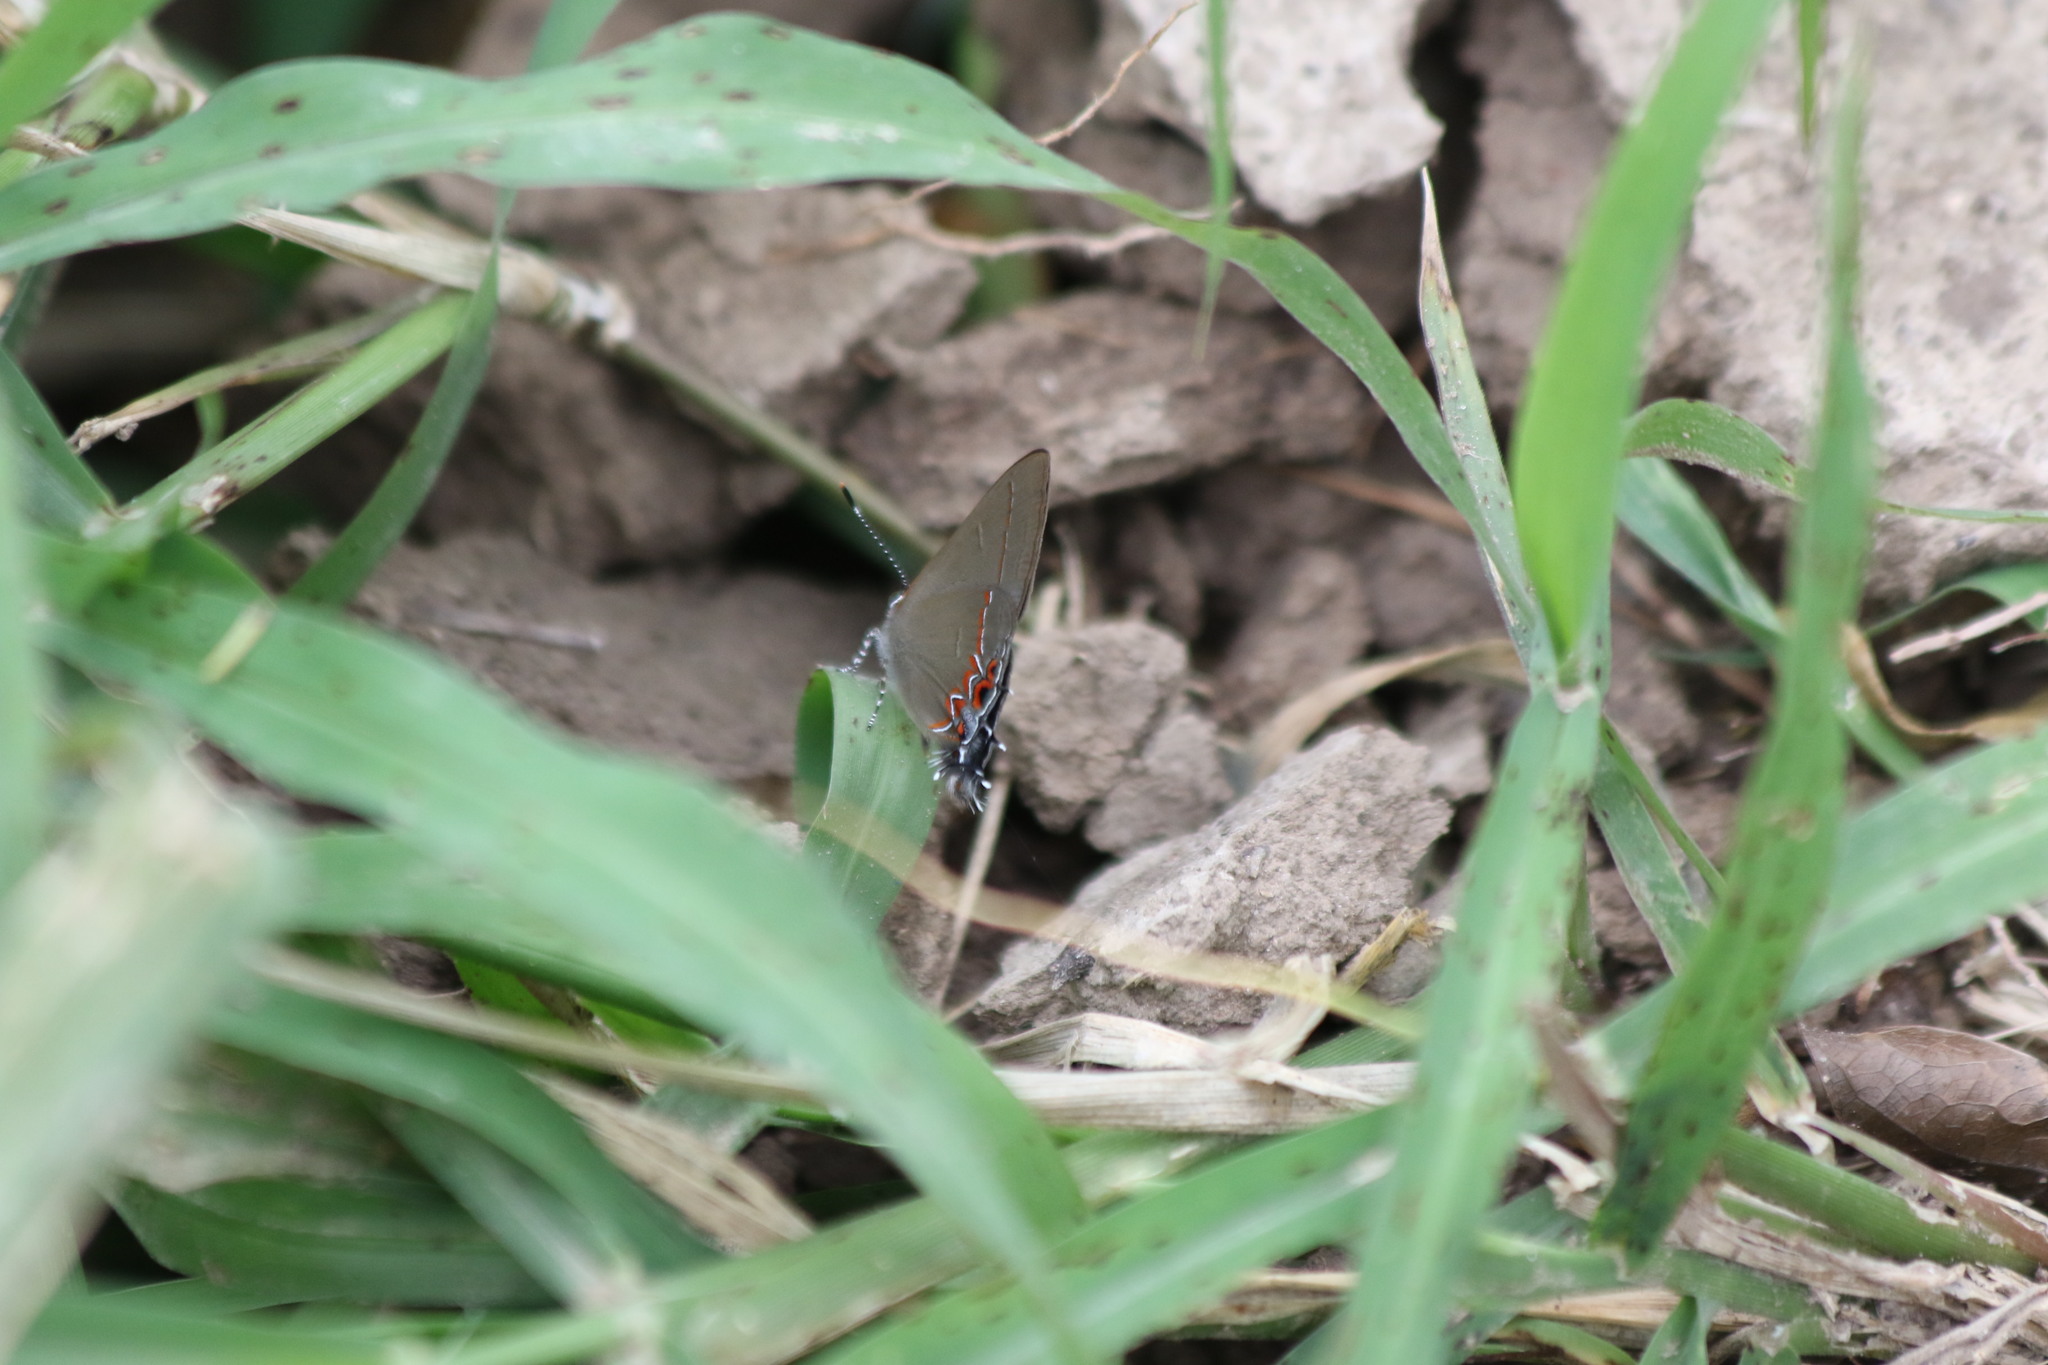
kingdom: Animalia
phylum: Arthropoda
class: Insecta
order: Lepidoptera
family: Lycaenidae
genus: Calycopis
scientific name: Calycopis isobeon
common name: Dusky-blue groundstreak
